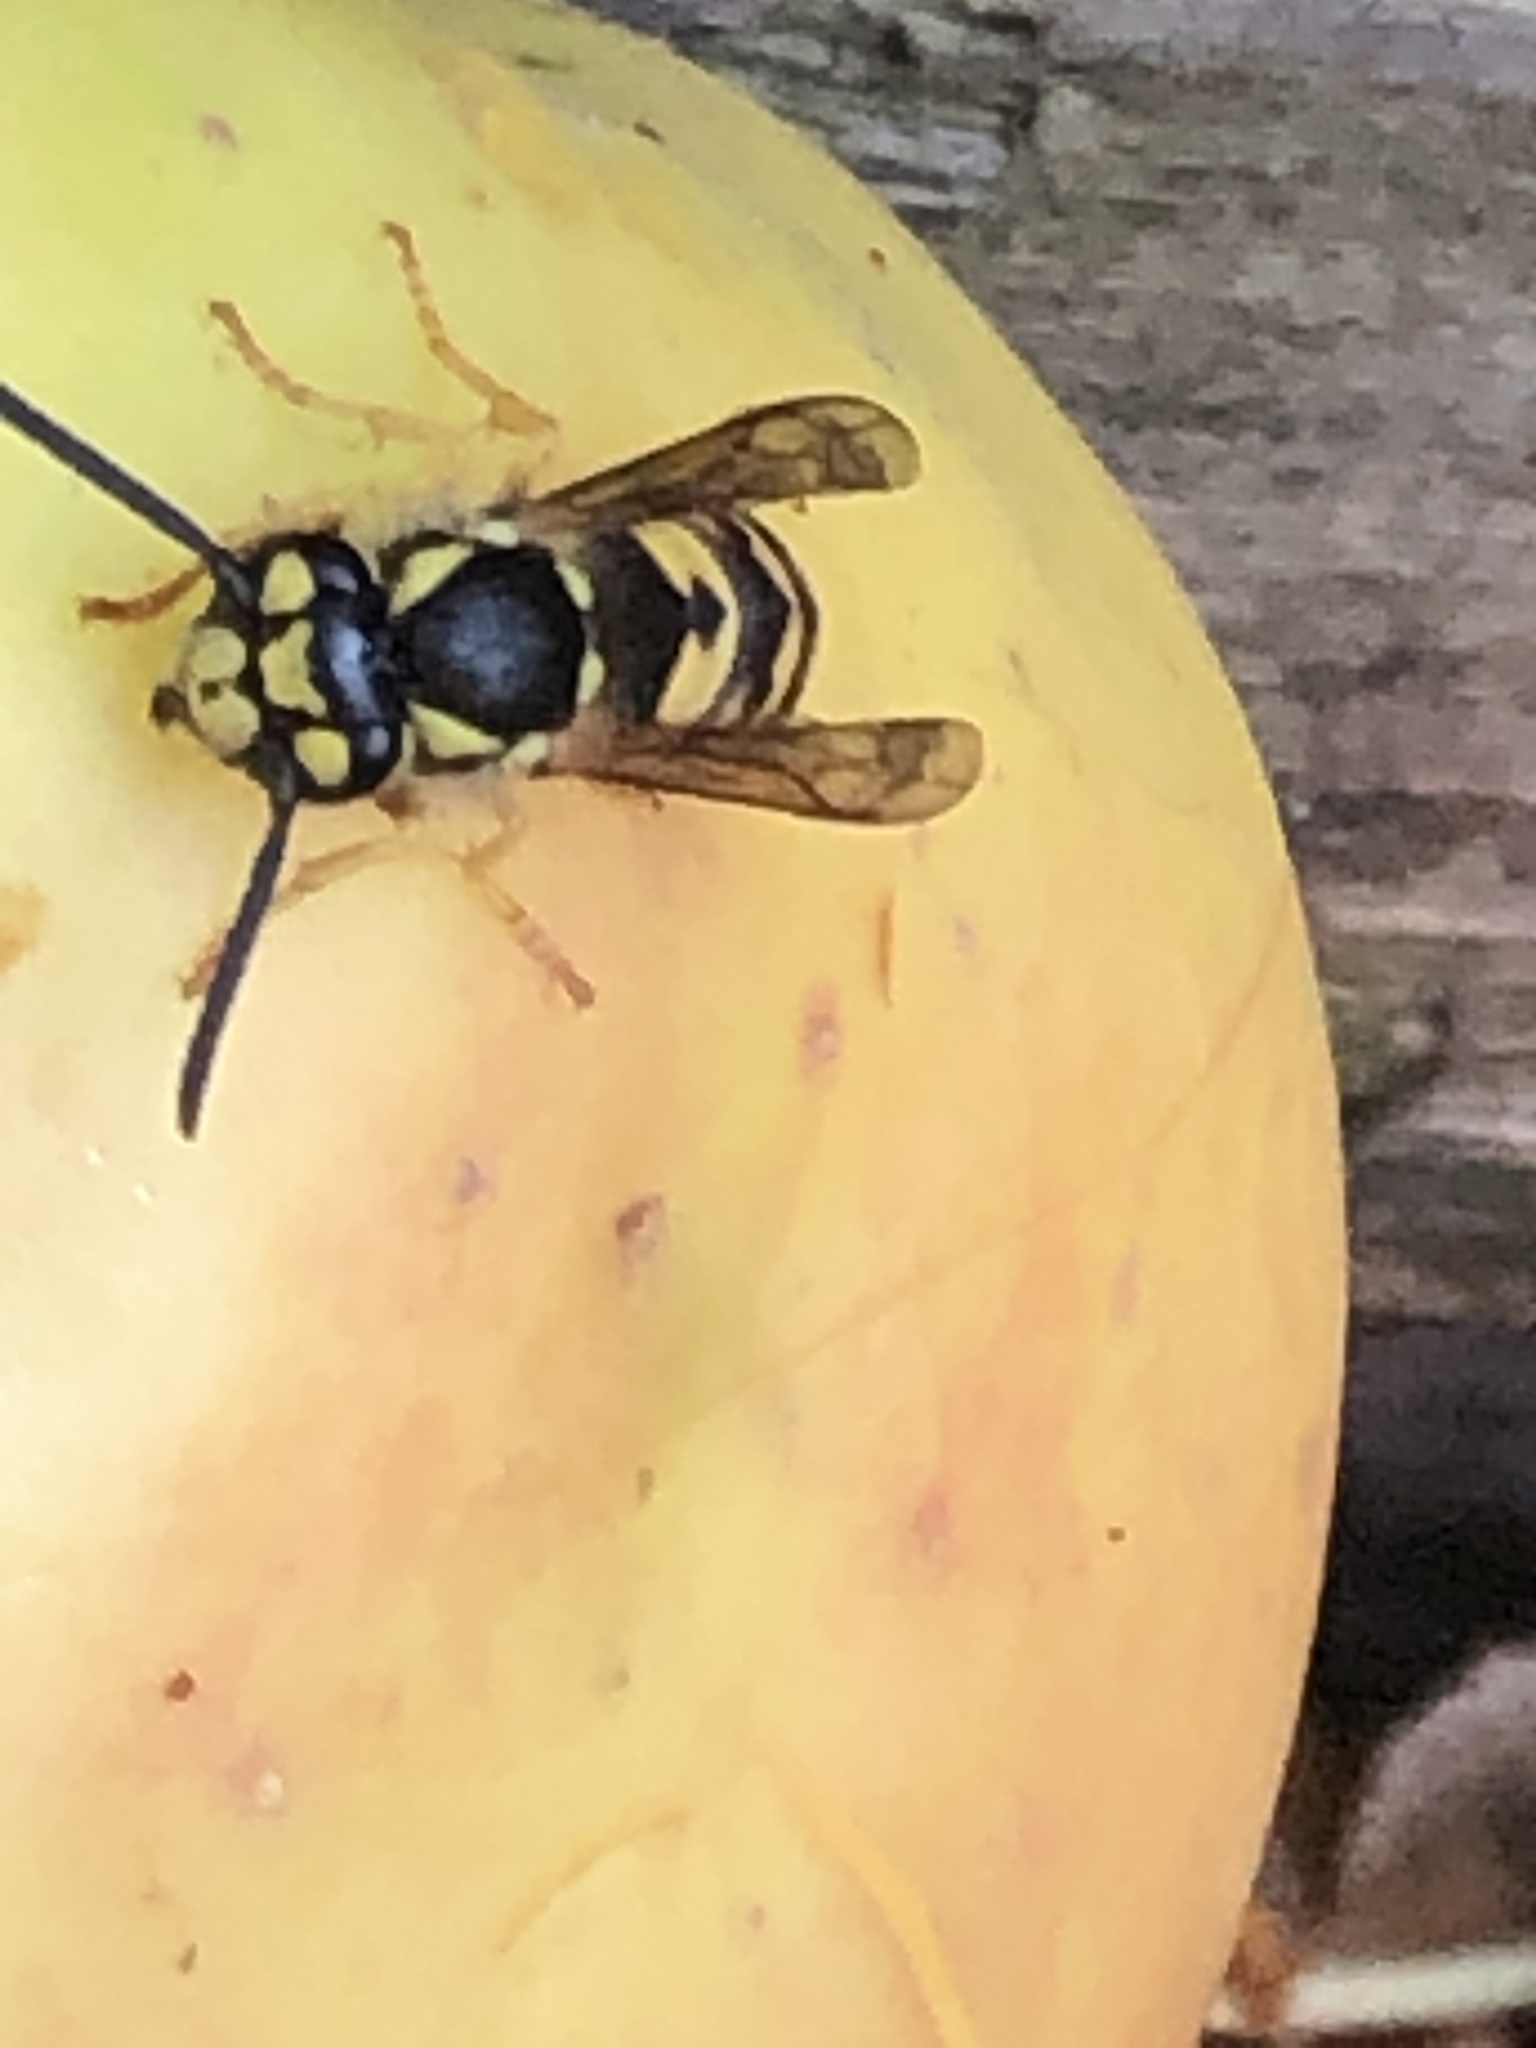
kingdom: Animalia
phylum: Arthropoda
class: Insecta
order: Hymenoptera
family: Vespidae
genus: Vespula
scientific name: Vespula germanica
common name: German wasp
